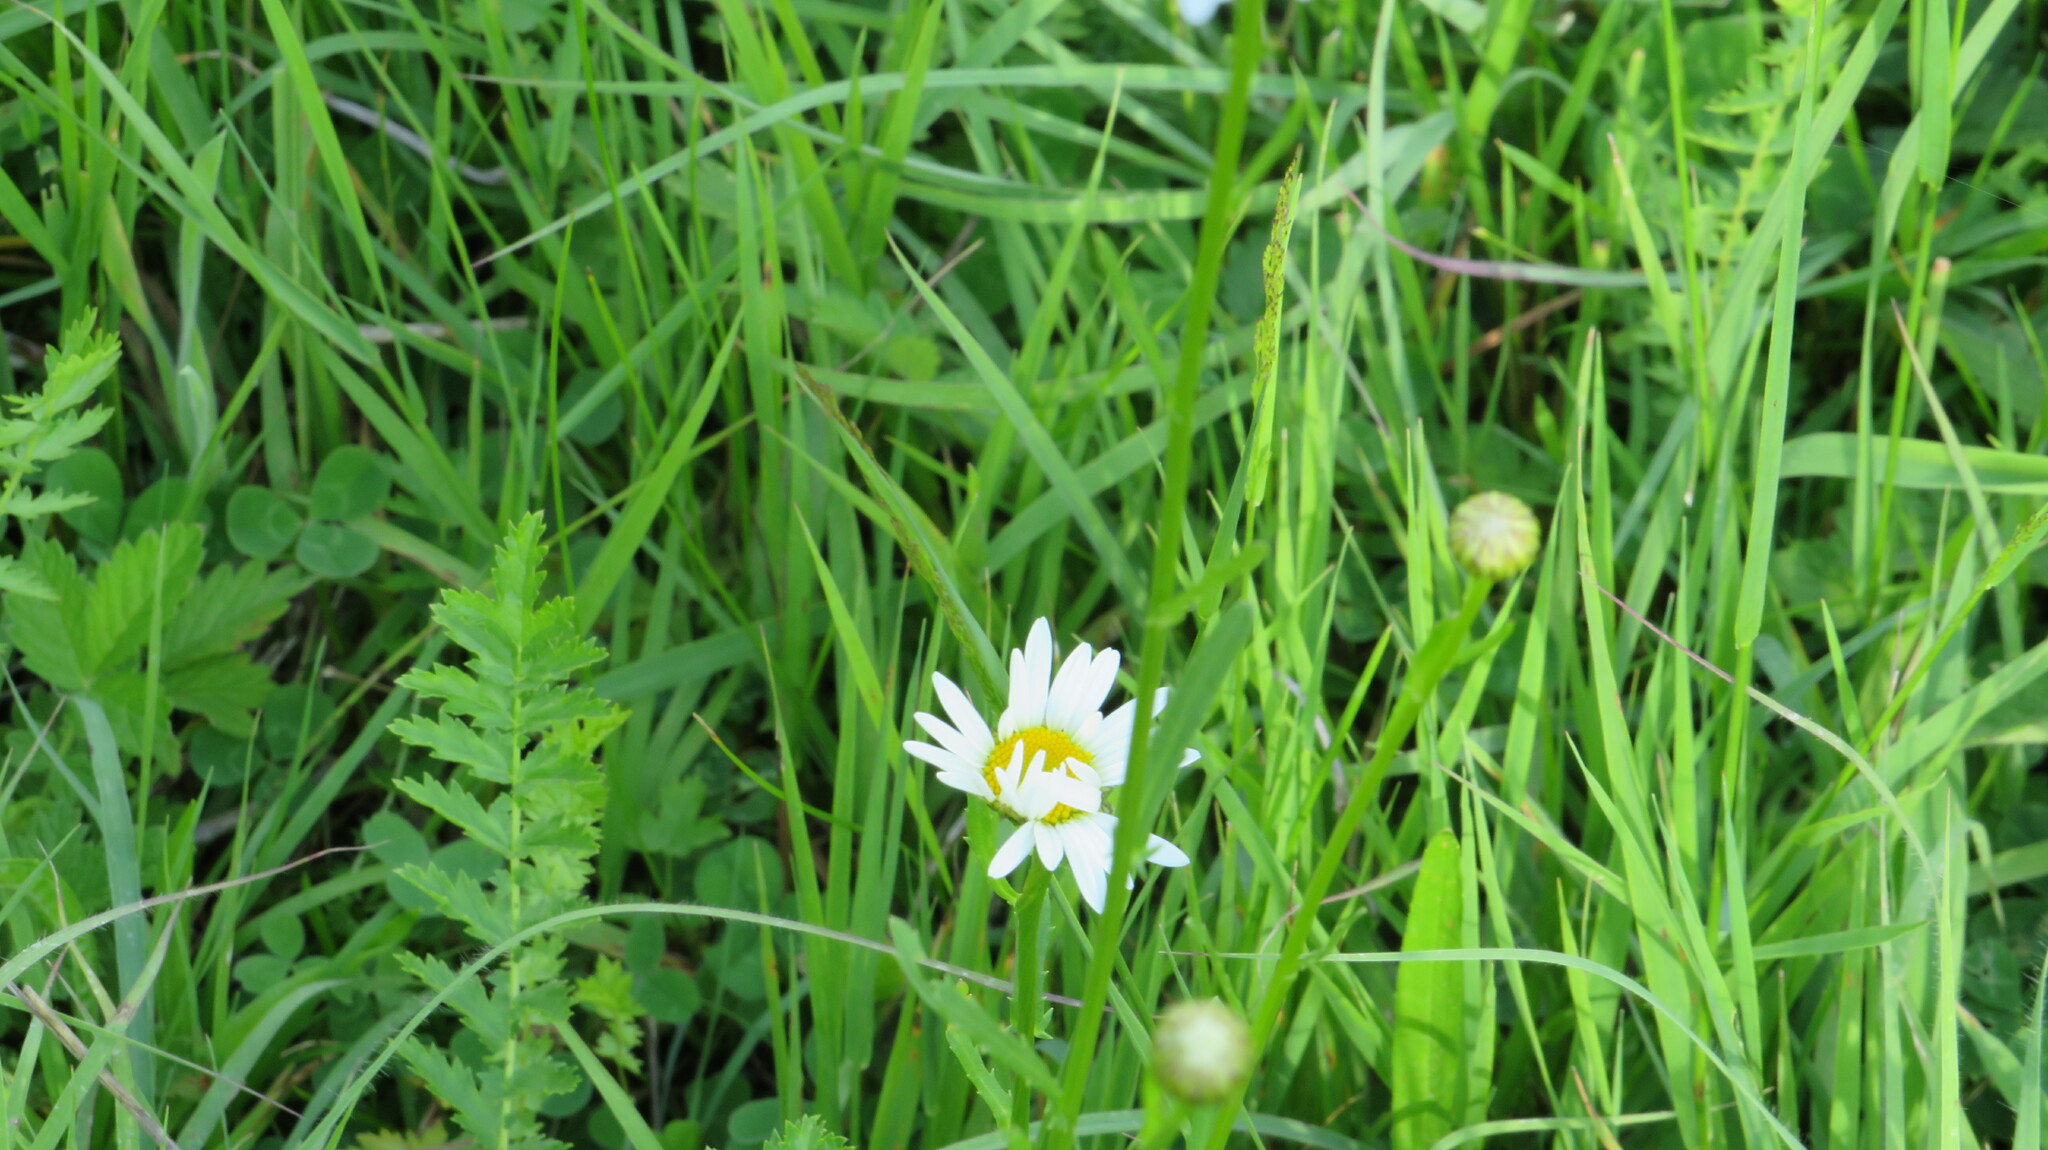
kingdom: Plantae
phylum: Tracheophyta
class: Magnoliopsida
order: Asterales
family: Asteraceae
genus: Leucanthemum
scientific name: Leucanthemum vulgare
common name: Oxeye daisy
